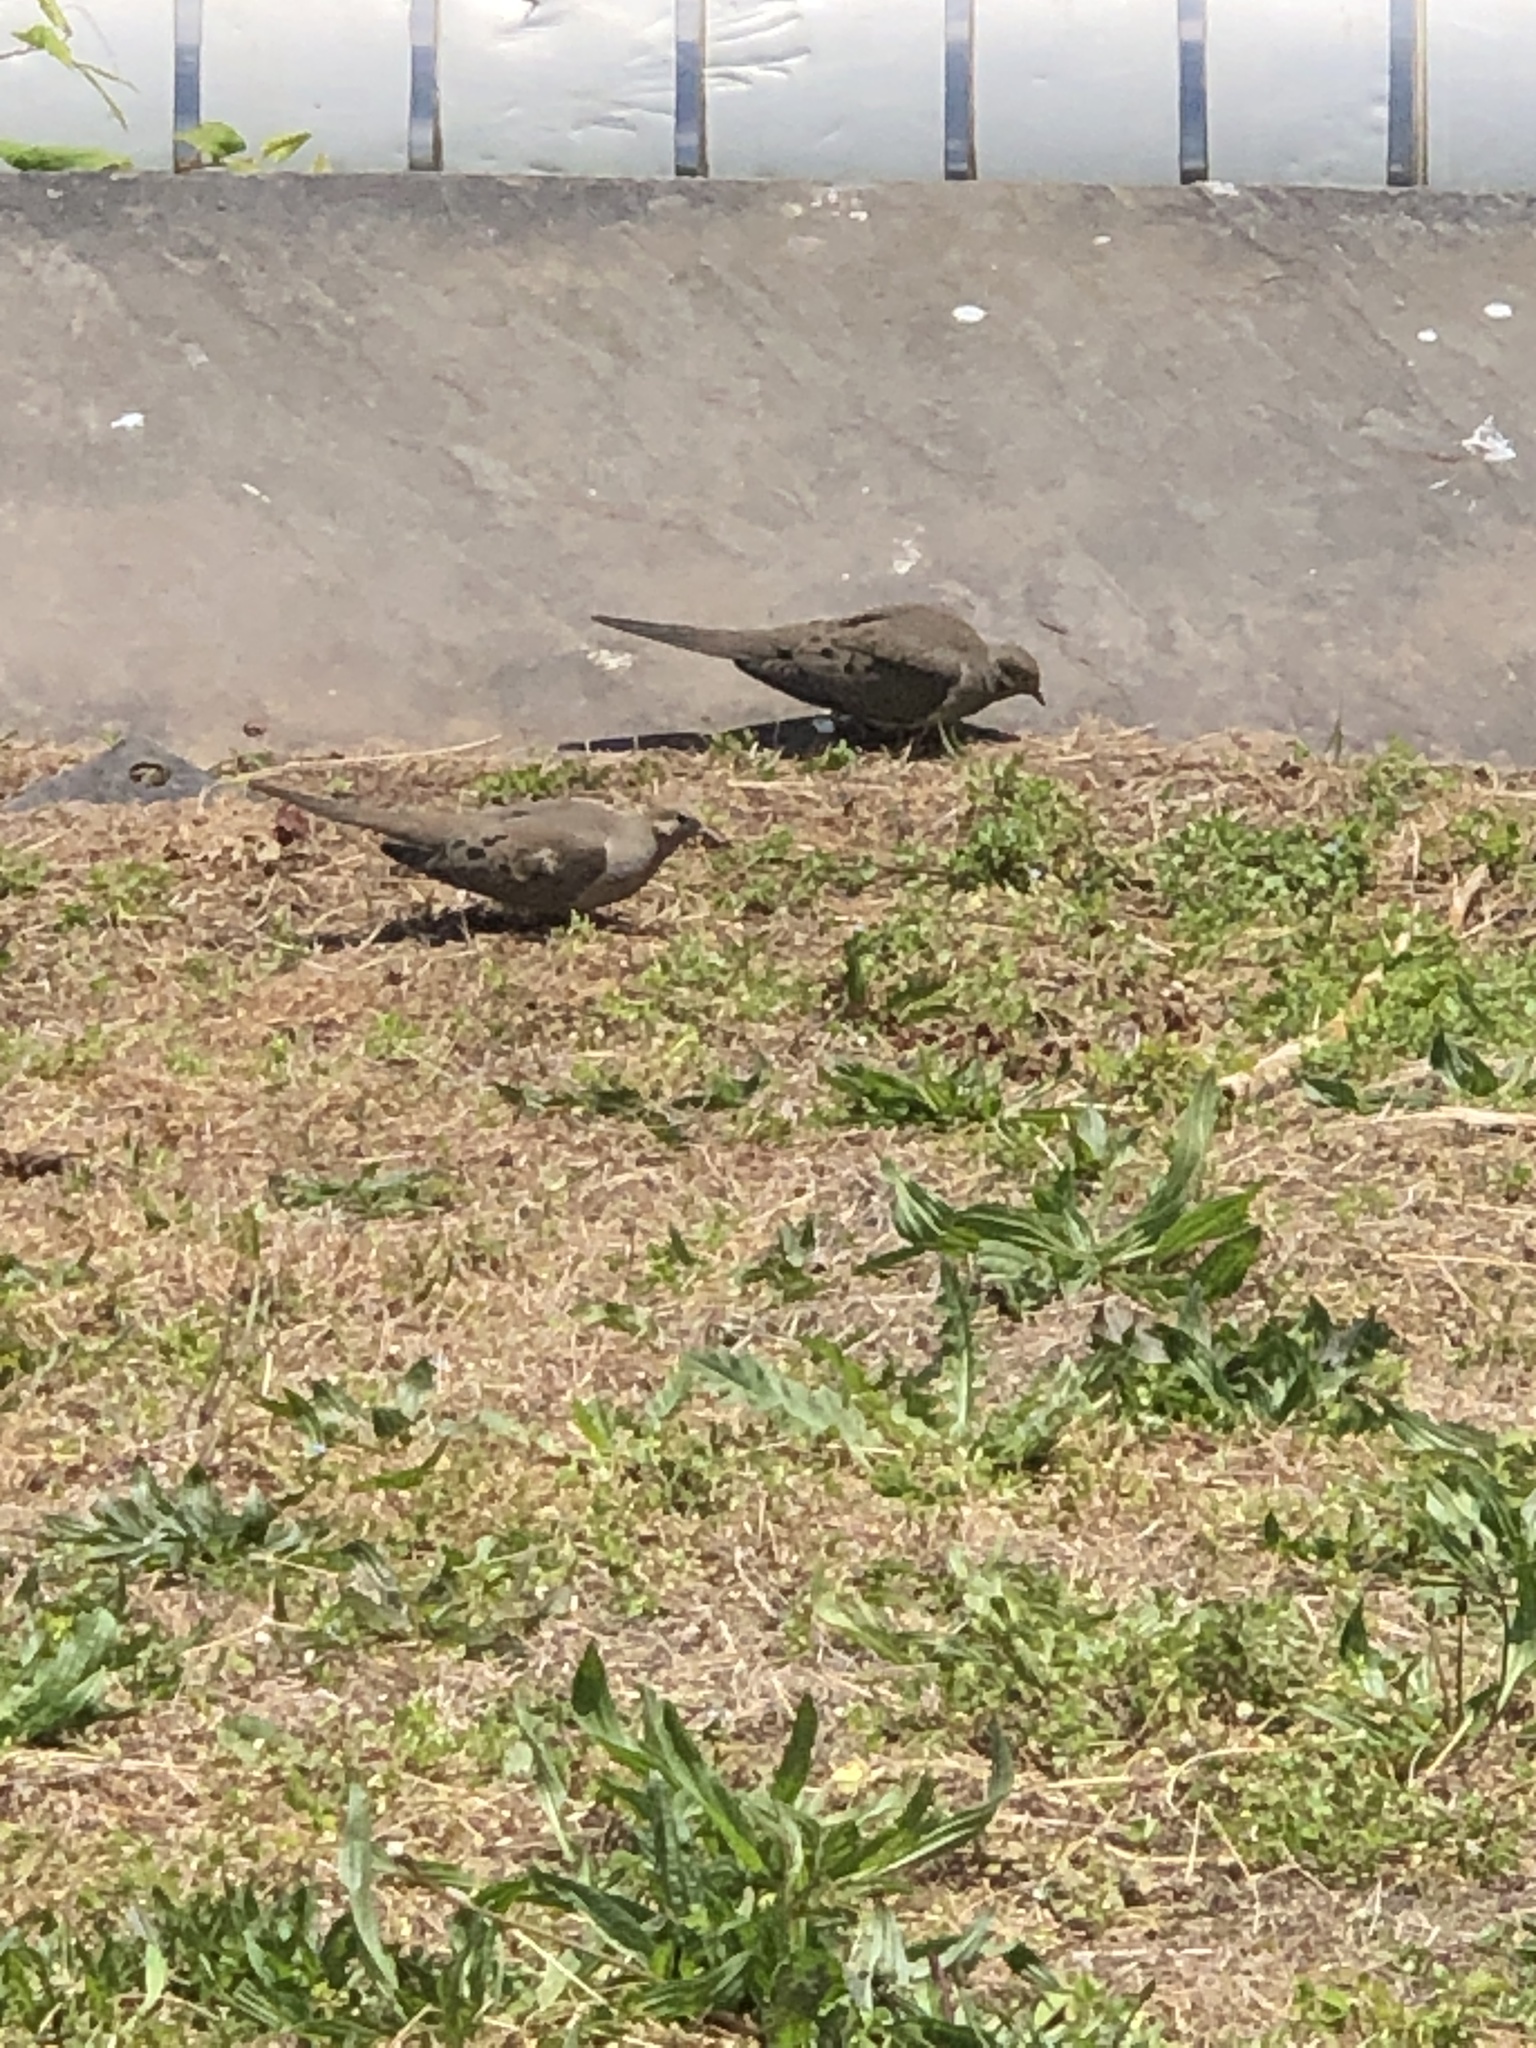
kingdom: Animalia
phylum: Chordata
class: Aves
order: Columbiformes
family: Columbidae
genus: Zenaida
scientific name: Zenaida macroura
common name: Mourning dove
